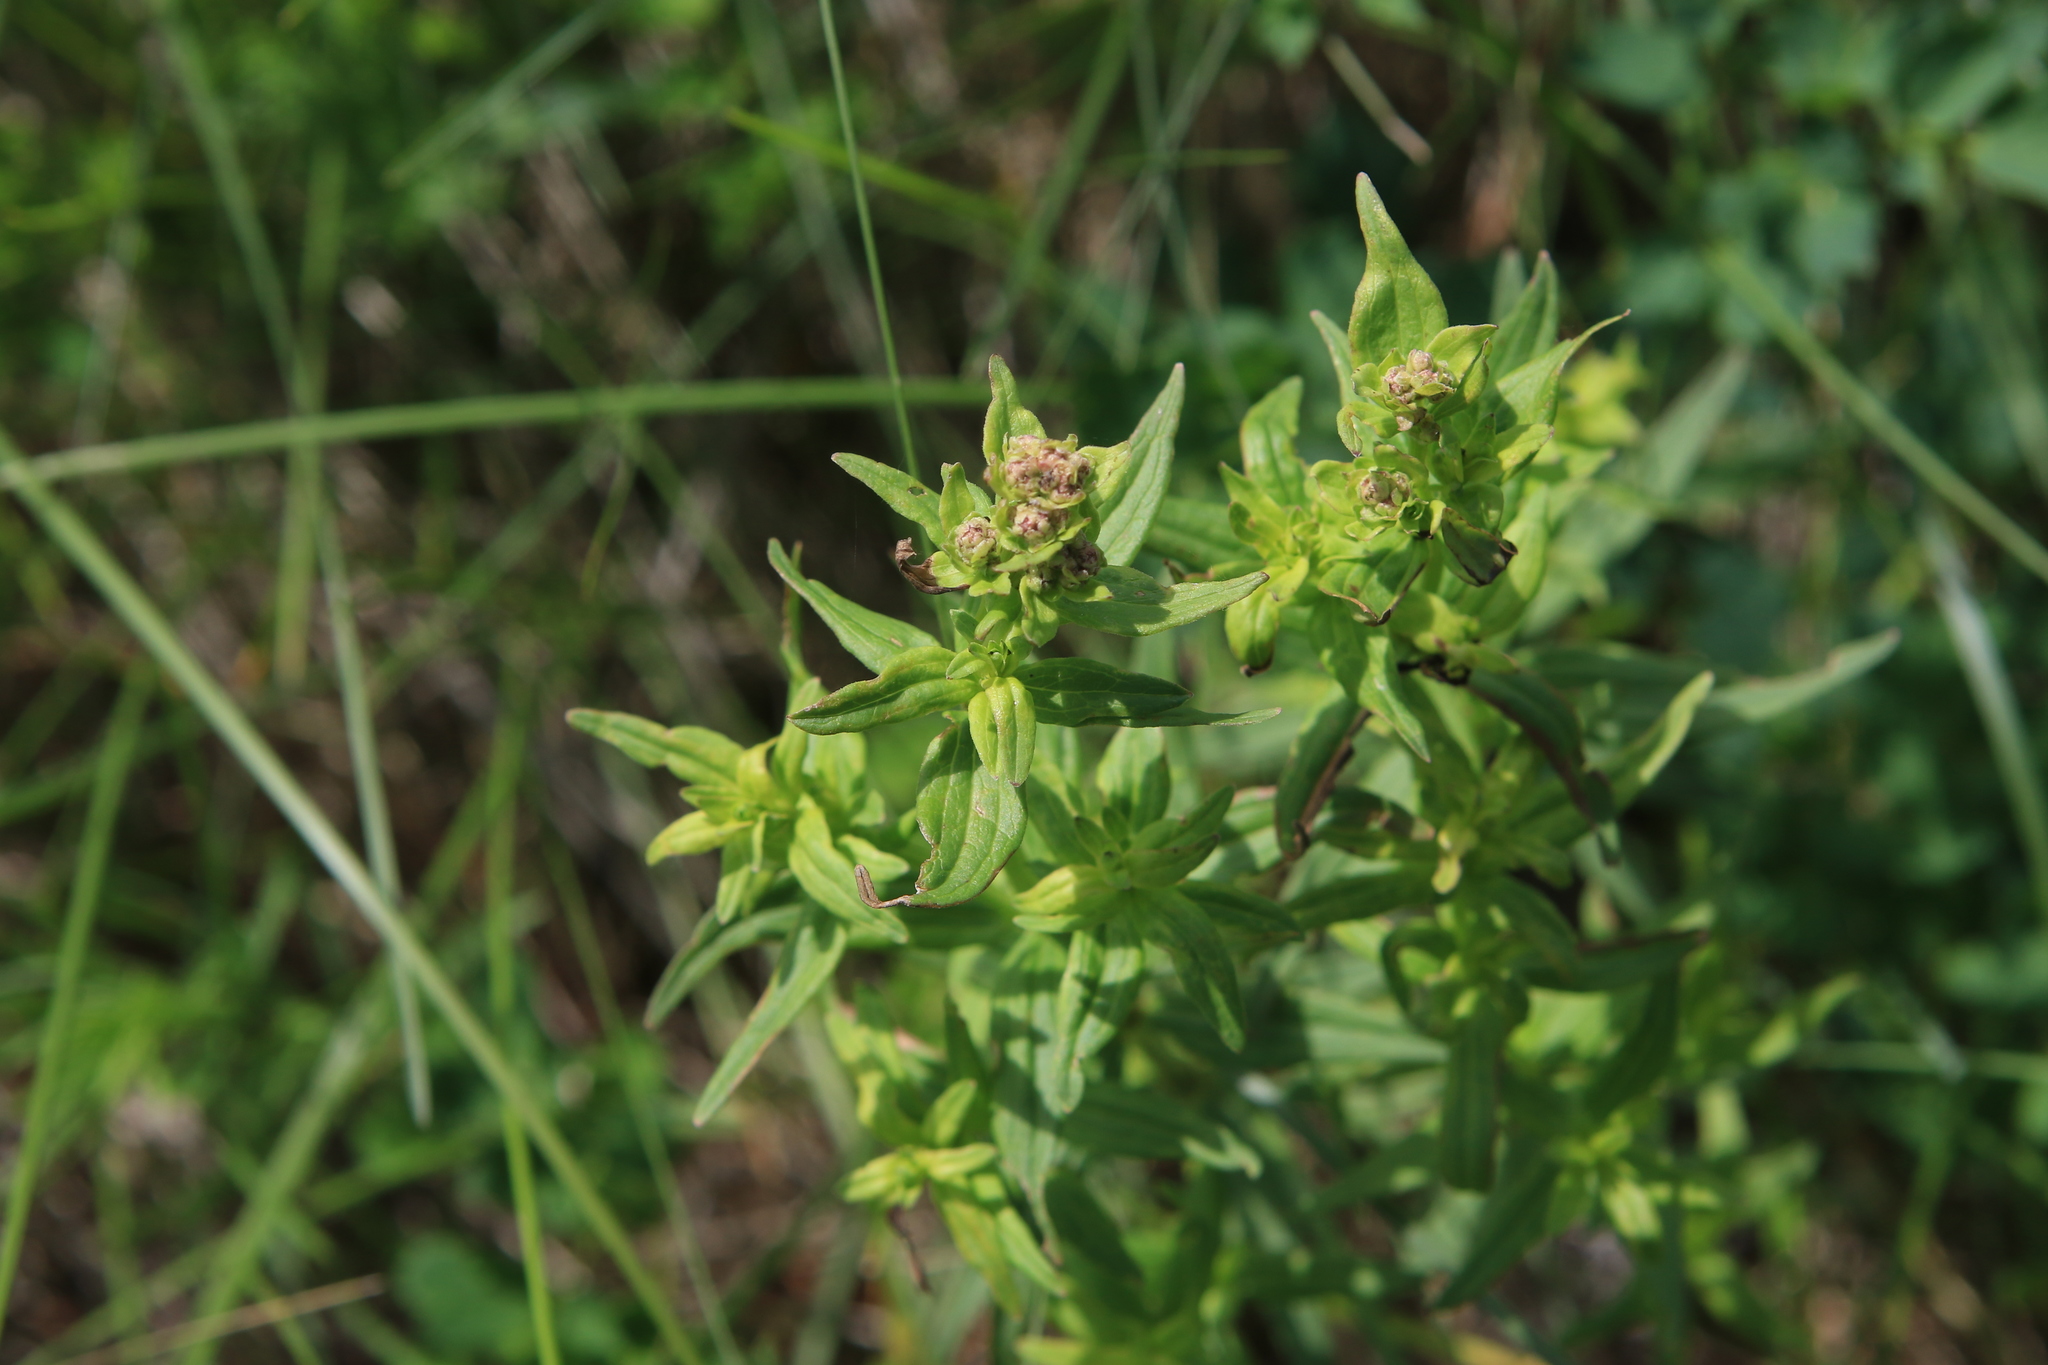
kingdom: Plantae
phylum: Tracheophyta
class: Magnoliopsida
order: Gentianales
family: Rubiaceae
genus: Galium
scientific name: Galium boreale
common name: Northern bedstraw
